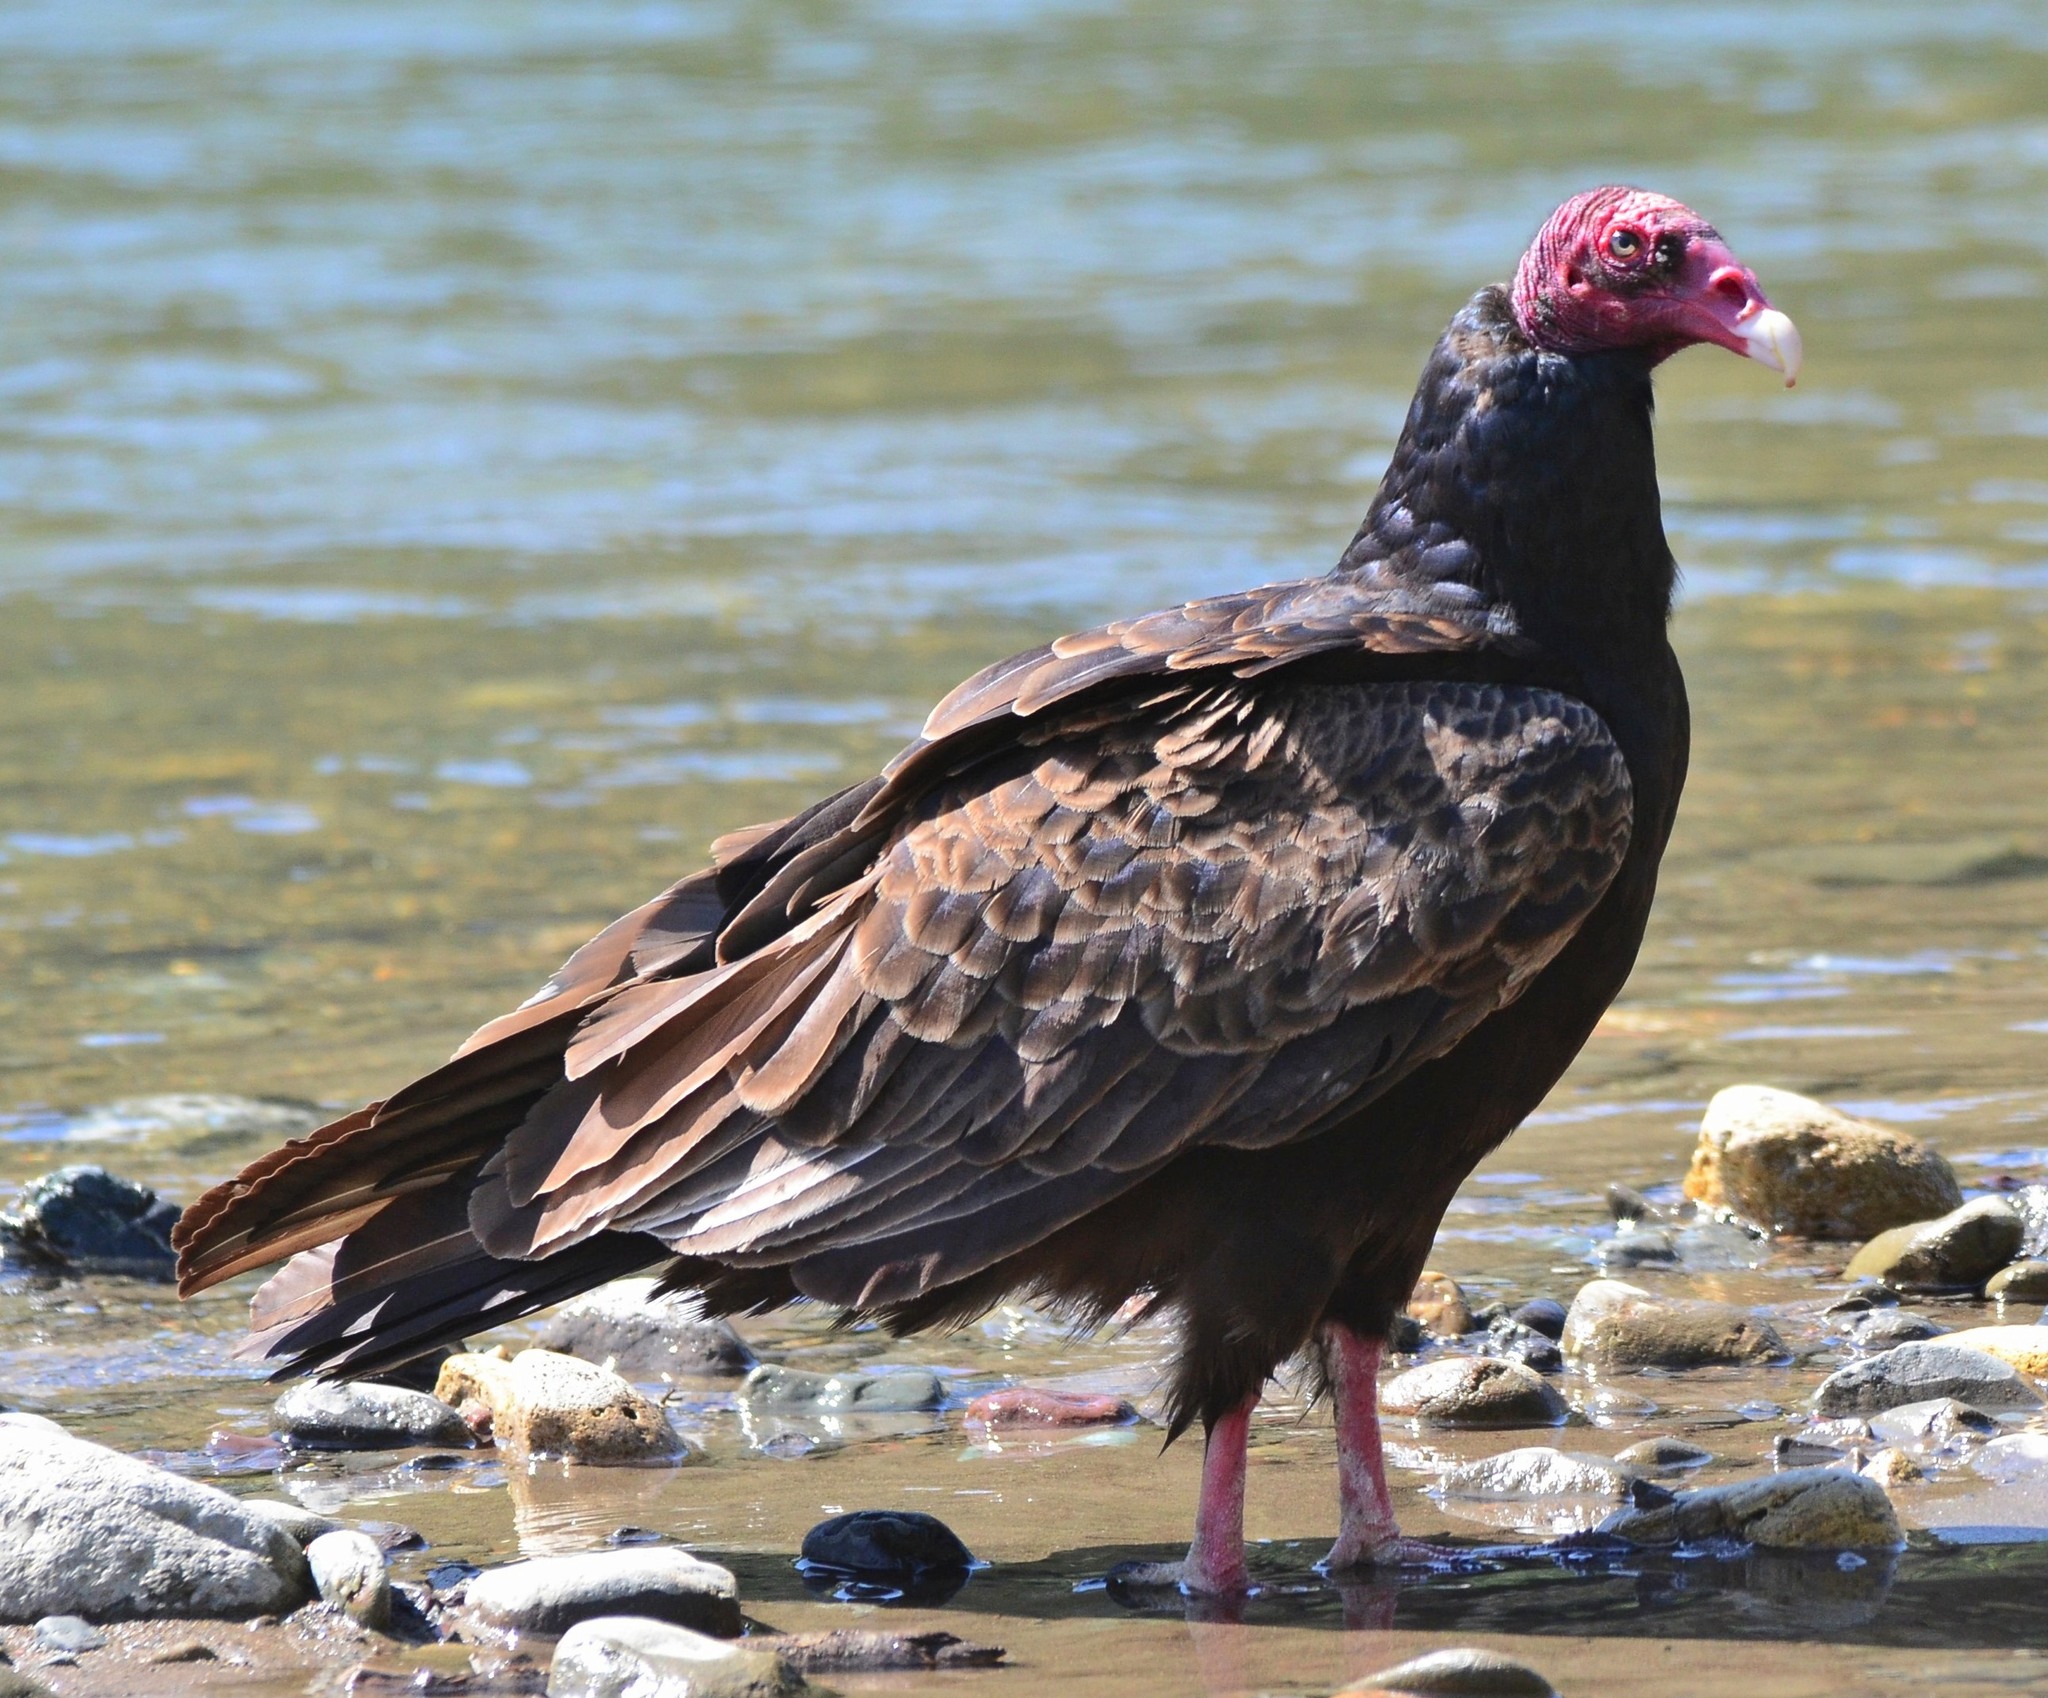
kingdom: Animalia
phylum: Chordata
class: Aves
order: Accipitriformes
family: Cathartidae
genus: Cathartes
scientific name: Cathartes aura
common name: Turkey vulture
